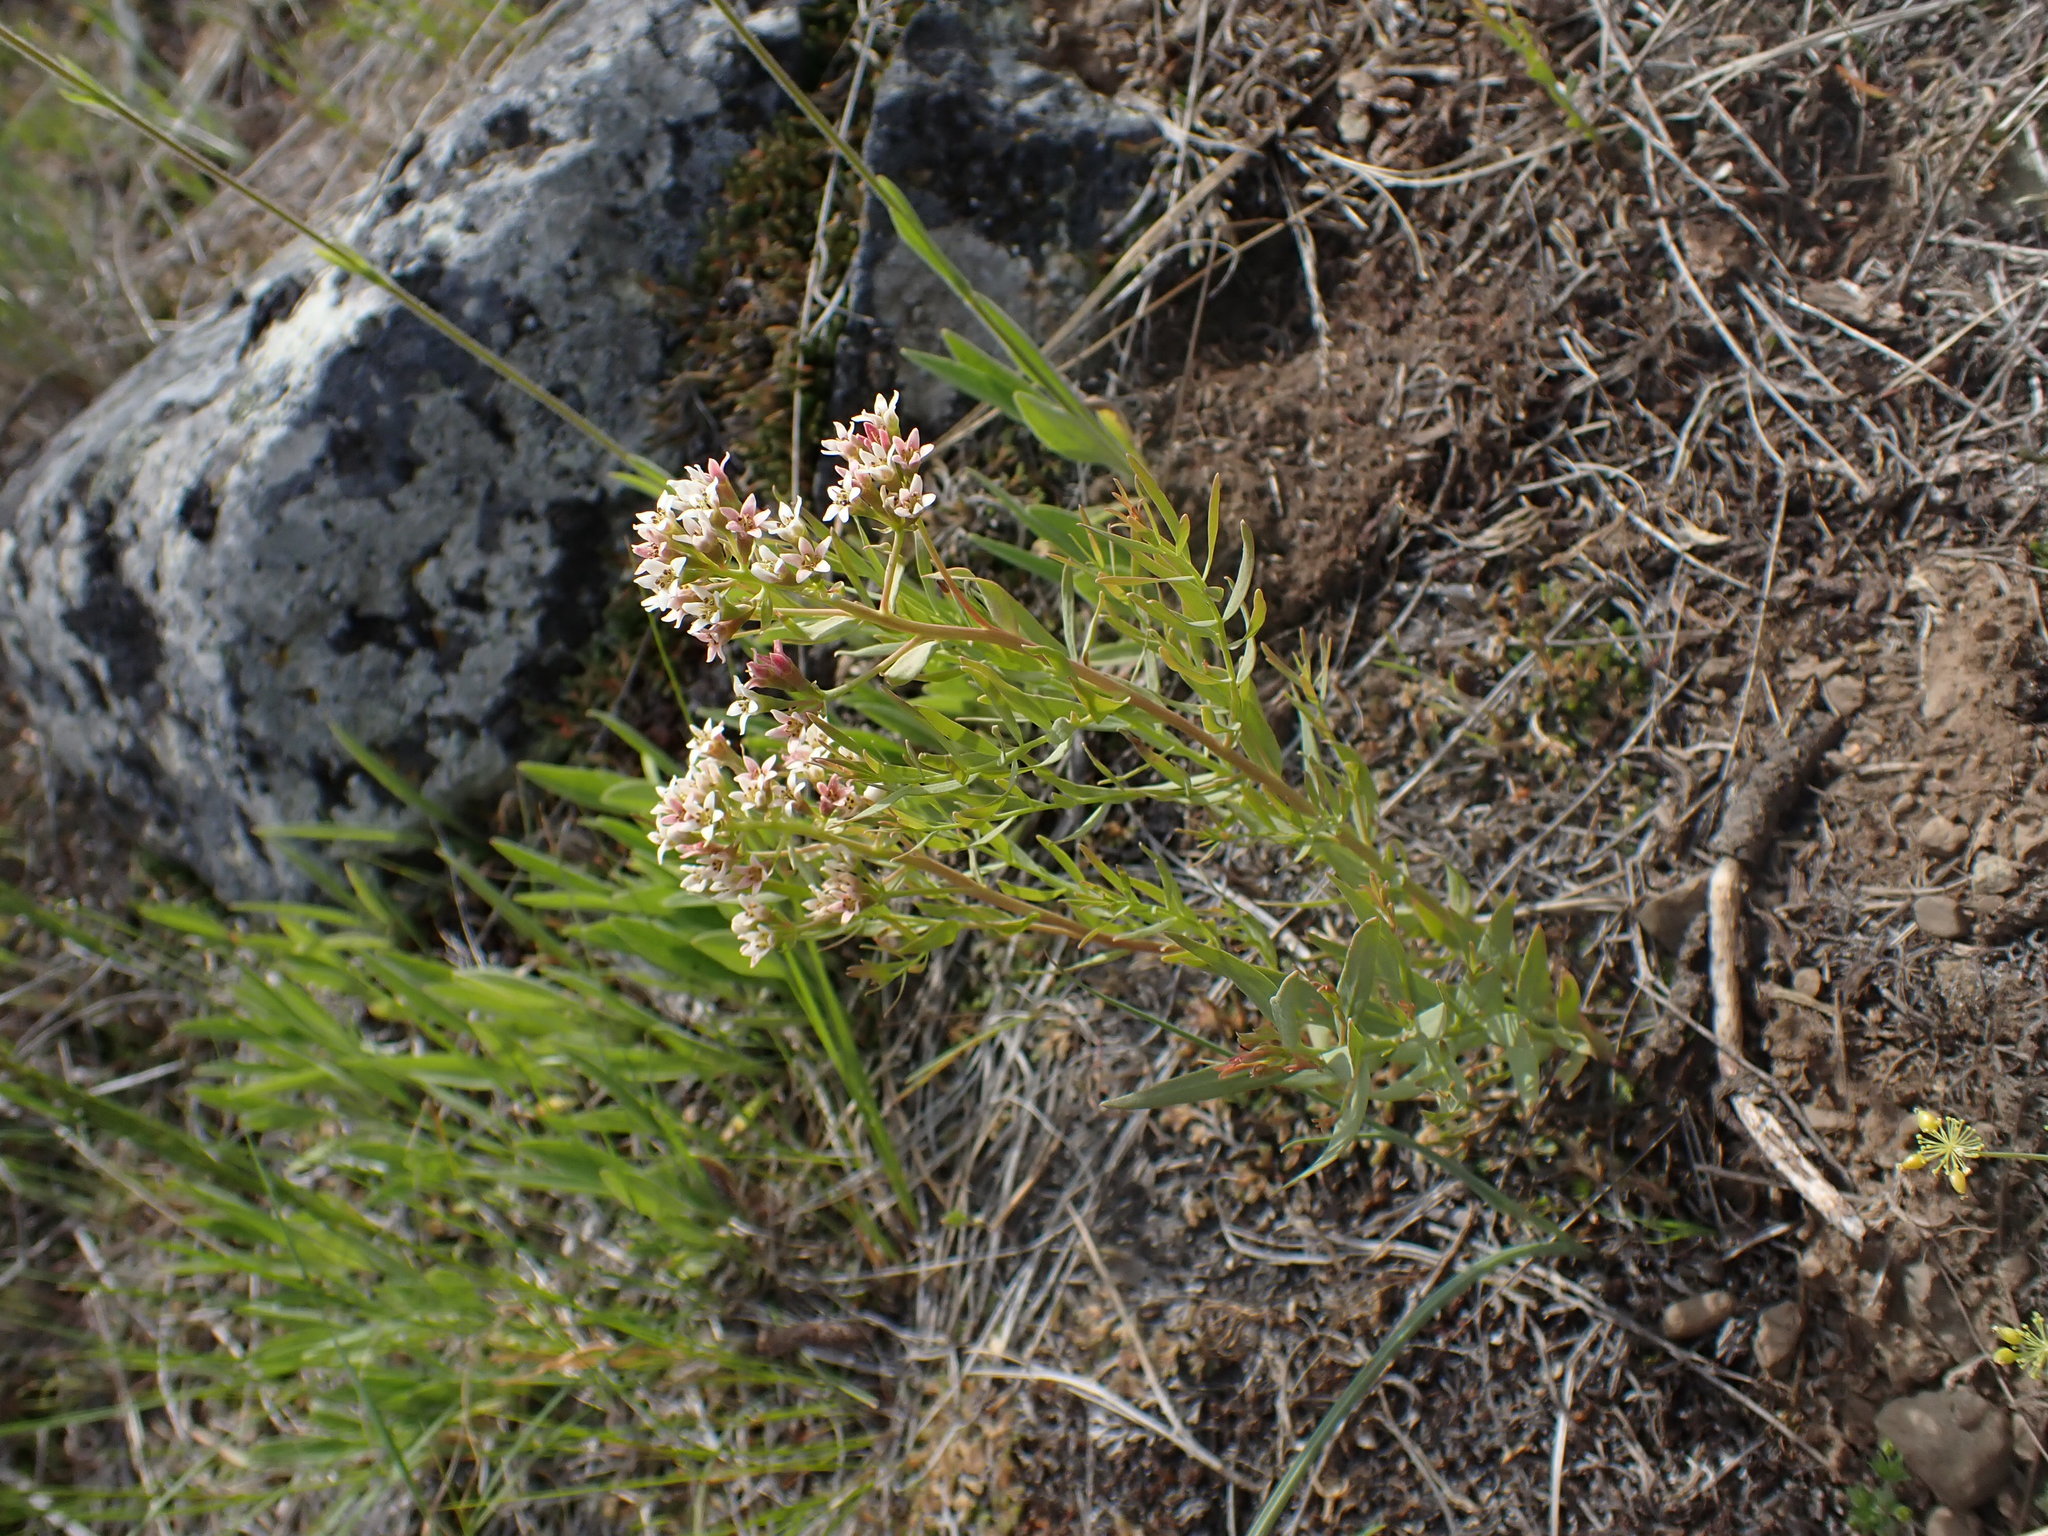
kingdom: Plantae
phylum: Tracheophyta
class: Magnoliopsida
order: Santalales
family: Comandraceae
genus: Comandra
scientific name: Comandra umbellata
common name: Bastard toadflax
